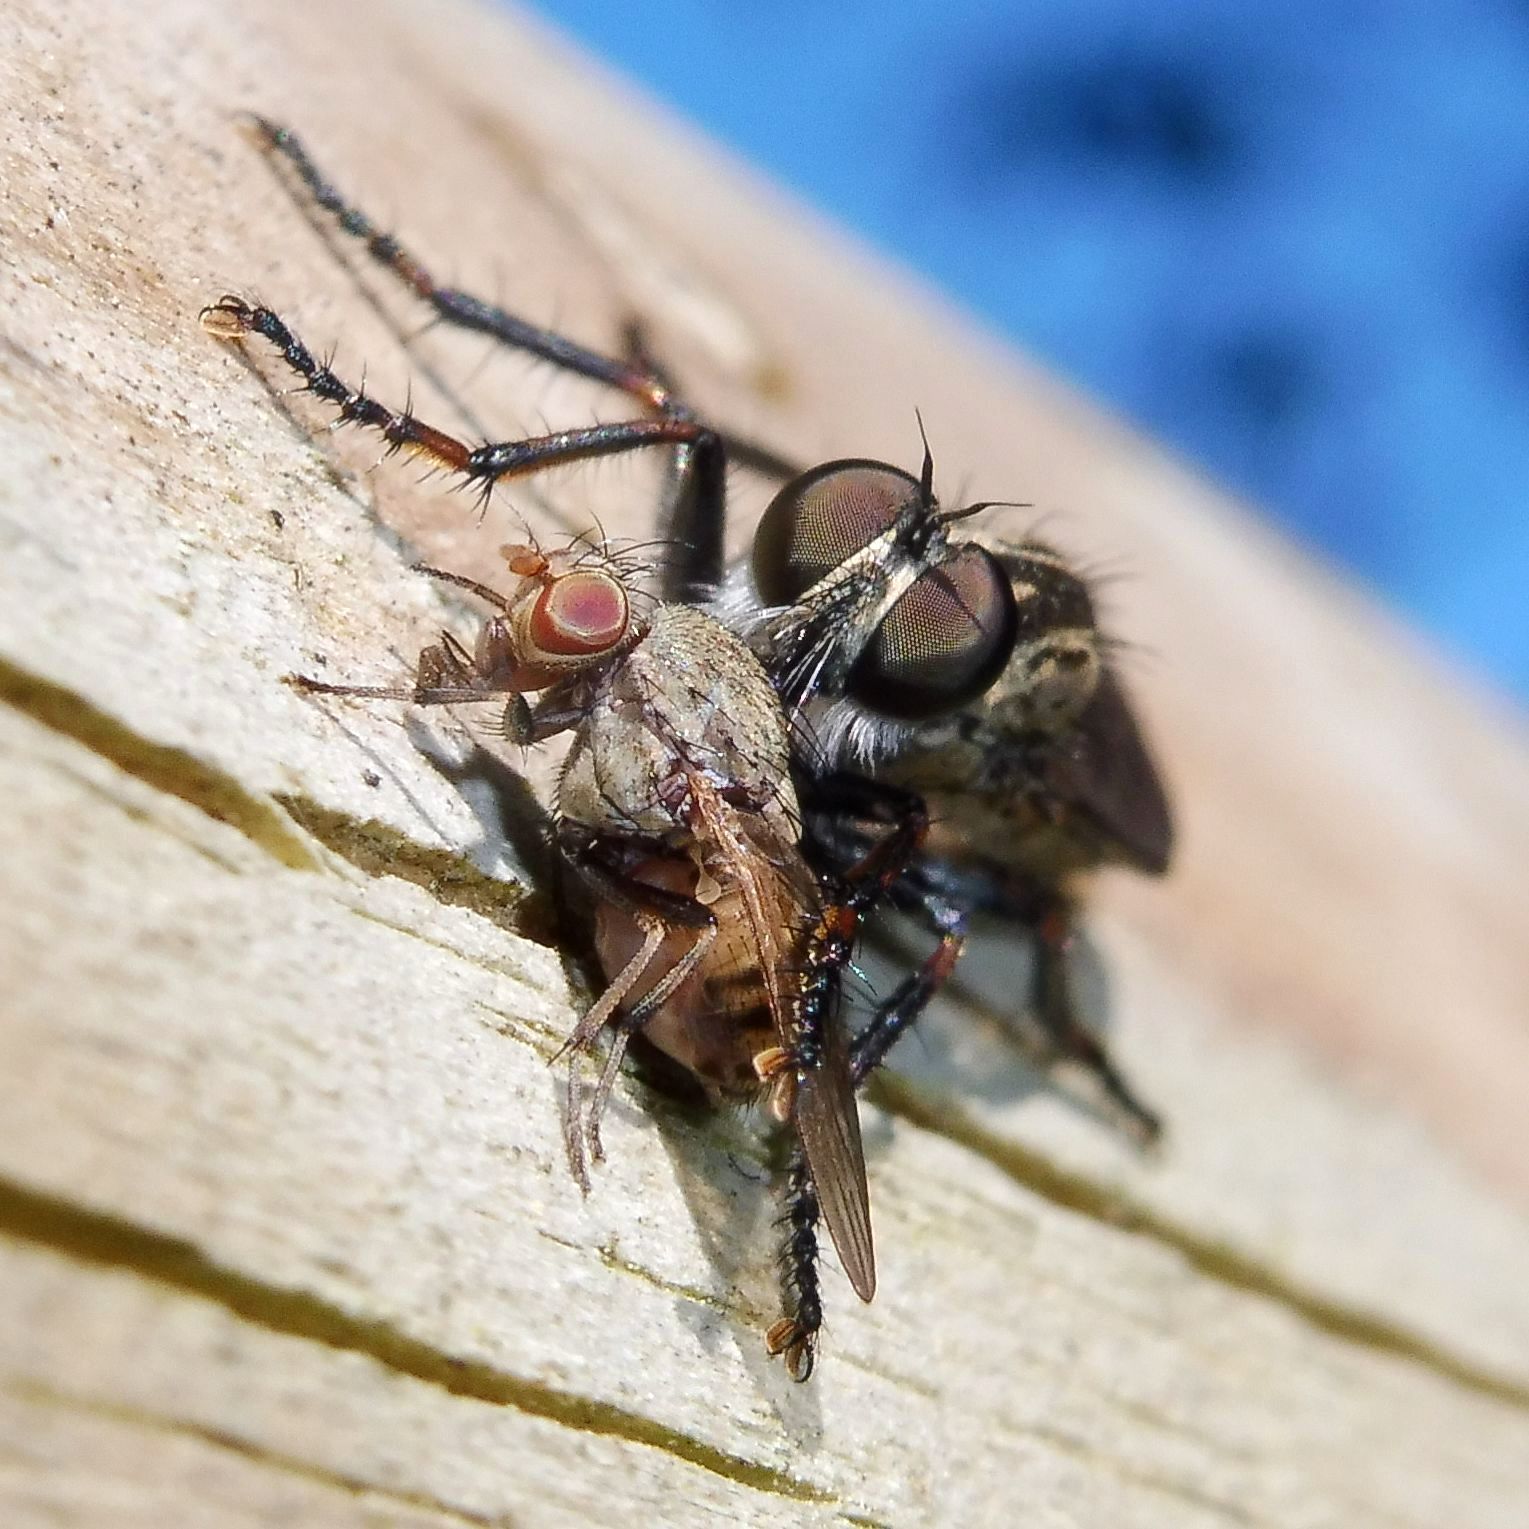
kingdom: Animalia
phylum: Arthropoda
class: Insecta
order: Diptera
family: Asilidae
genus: Machimus
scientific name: Machimus atricapillus
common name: Kite-tailed robberfly
